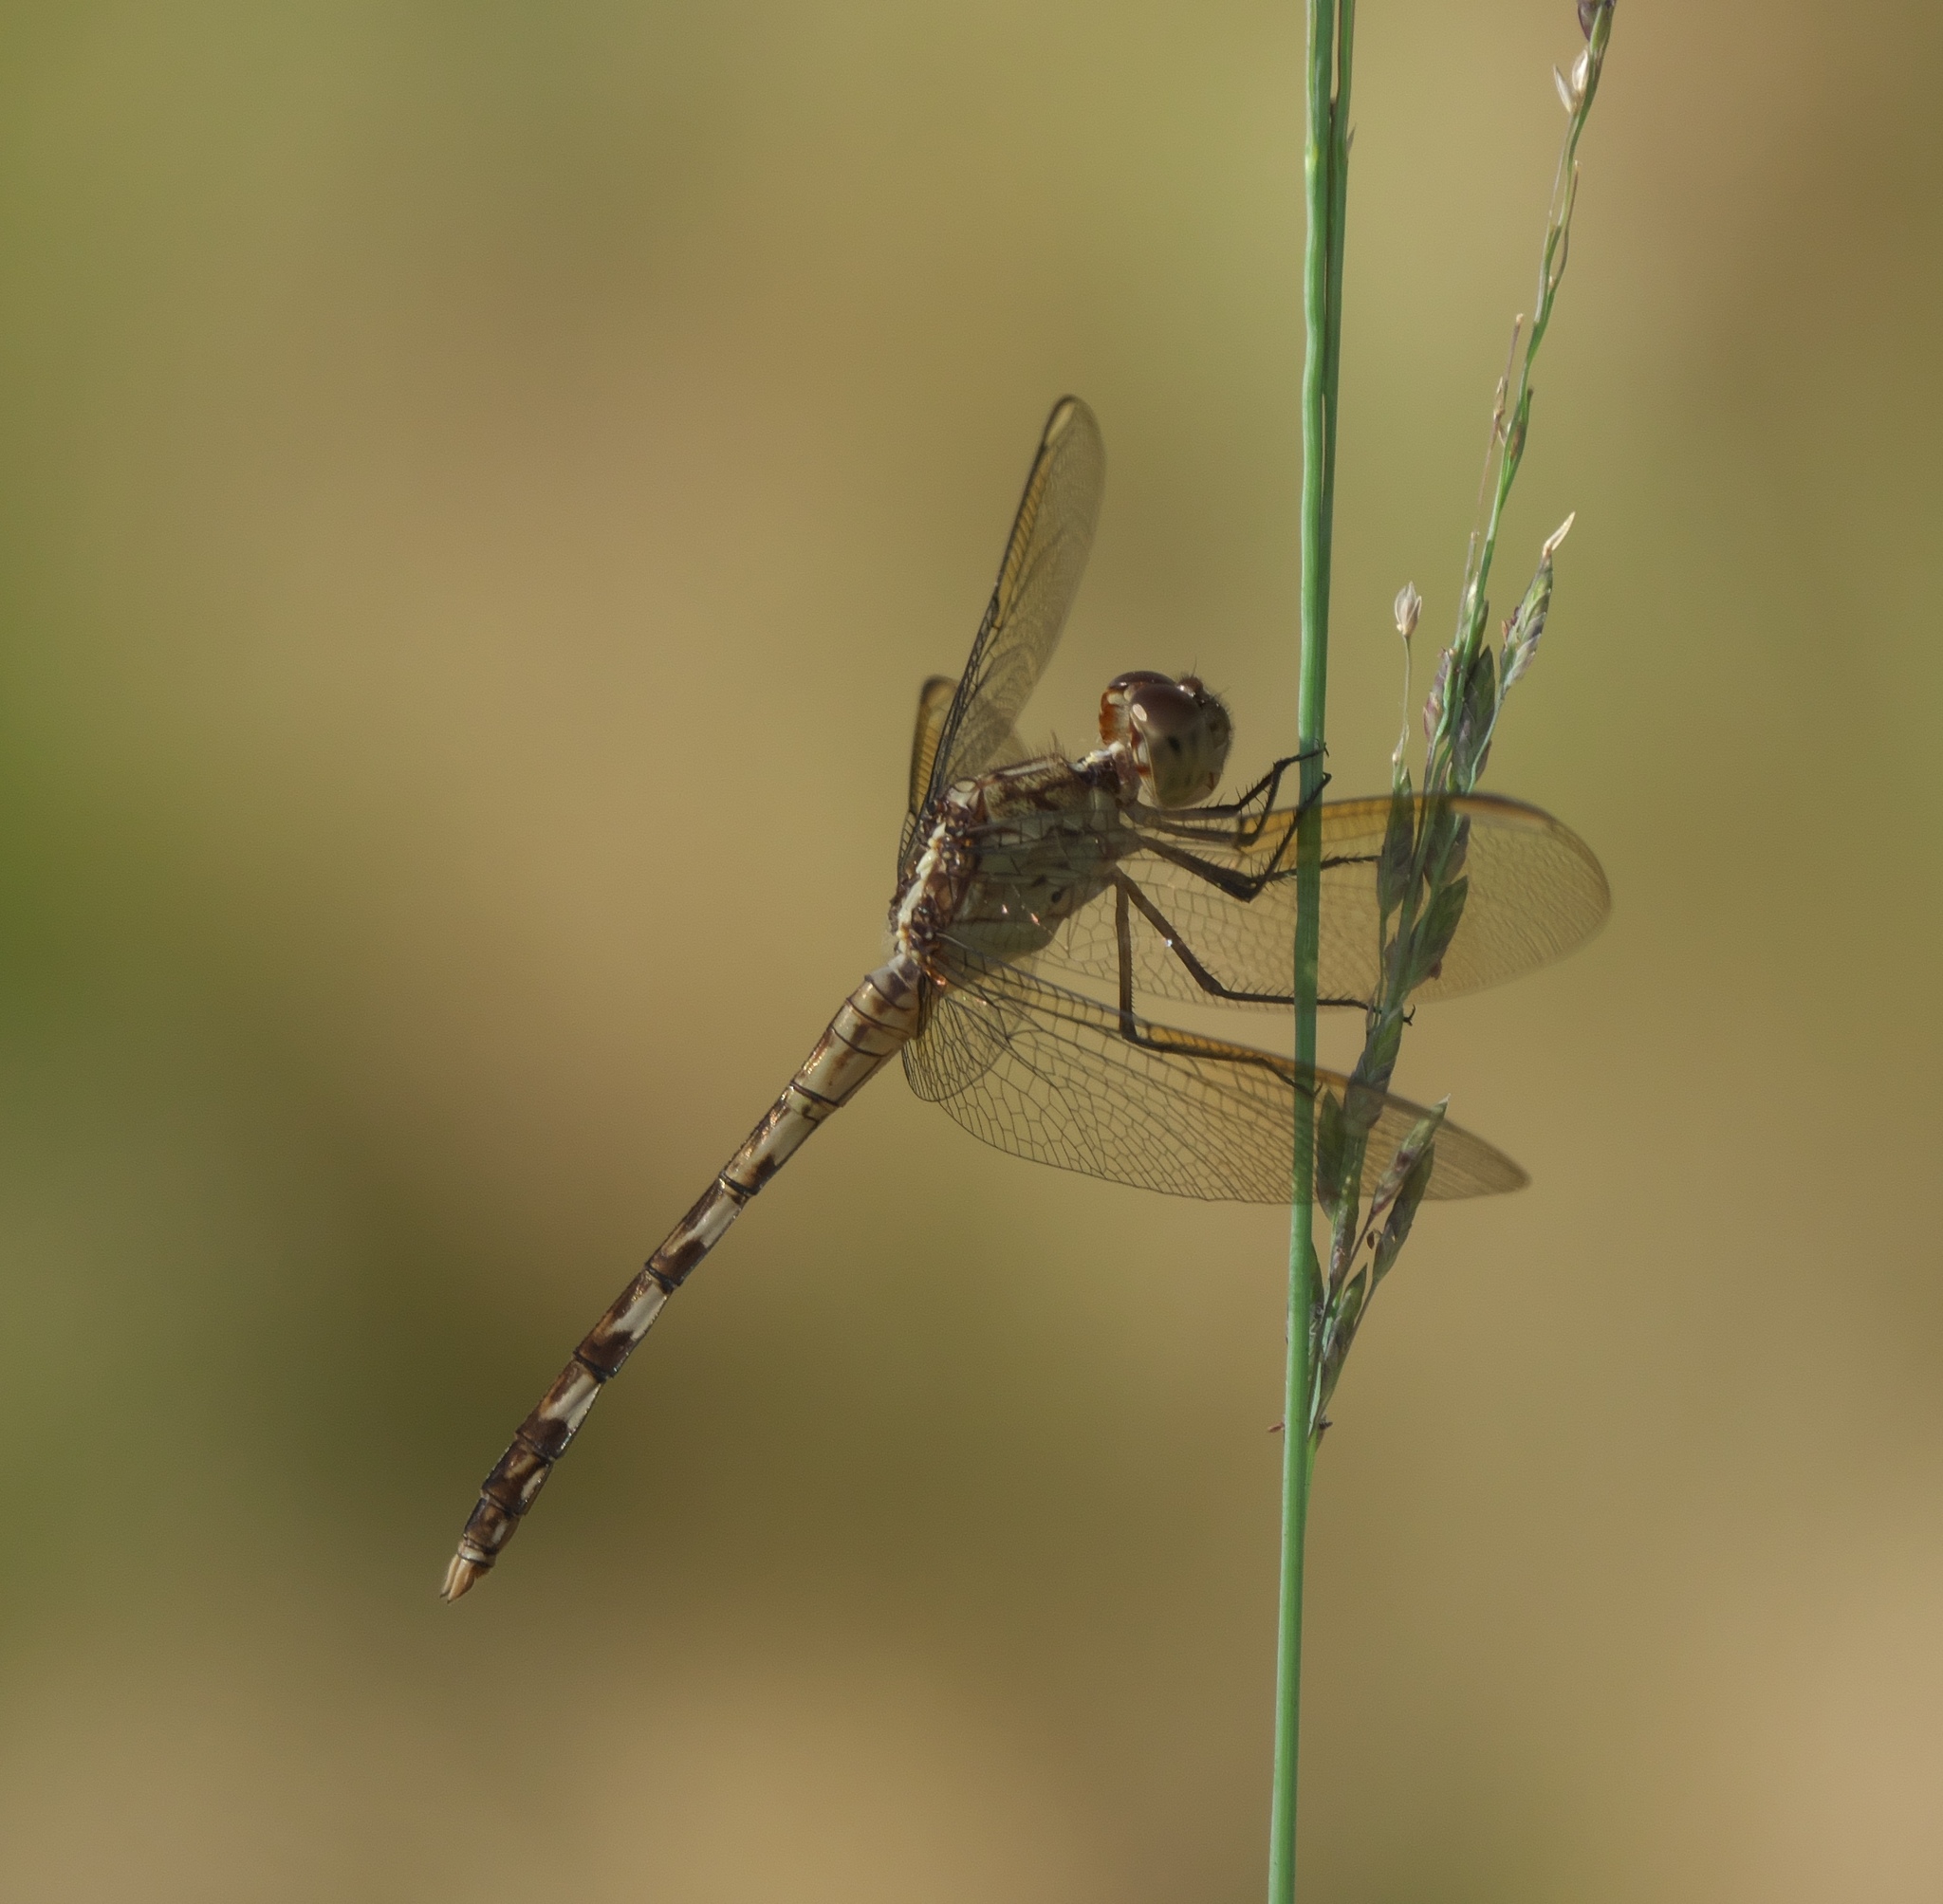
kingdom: Animalia
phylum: Arthropoda
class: Insecta
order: Odonata
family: Libellulidae
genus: Erythrodiplax
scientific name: Erythrodiplax umbrata
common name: Band-winged dragonlet
